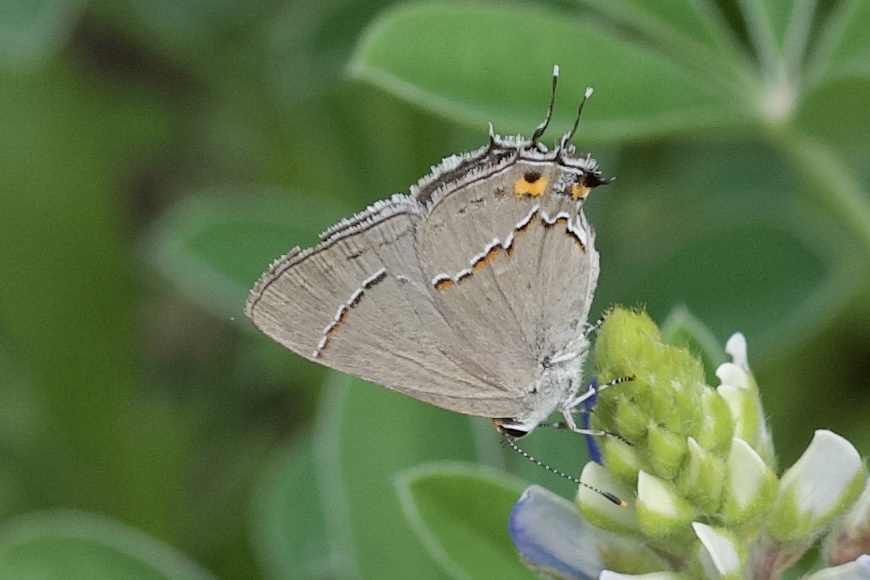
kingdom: Animalia
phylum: Arthropoda
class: Insecta
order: Lepidoptera
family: Lycaenidae
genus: Strymon
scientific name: Strymon melinus
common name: Gray hairstreak
